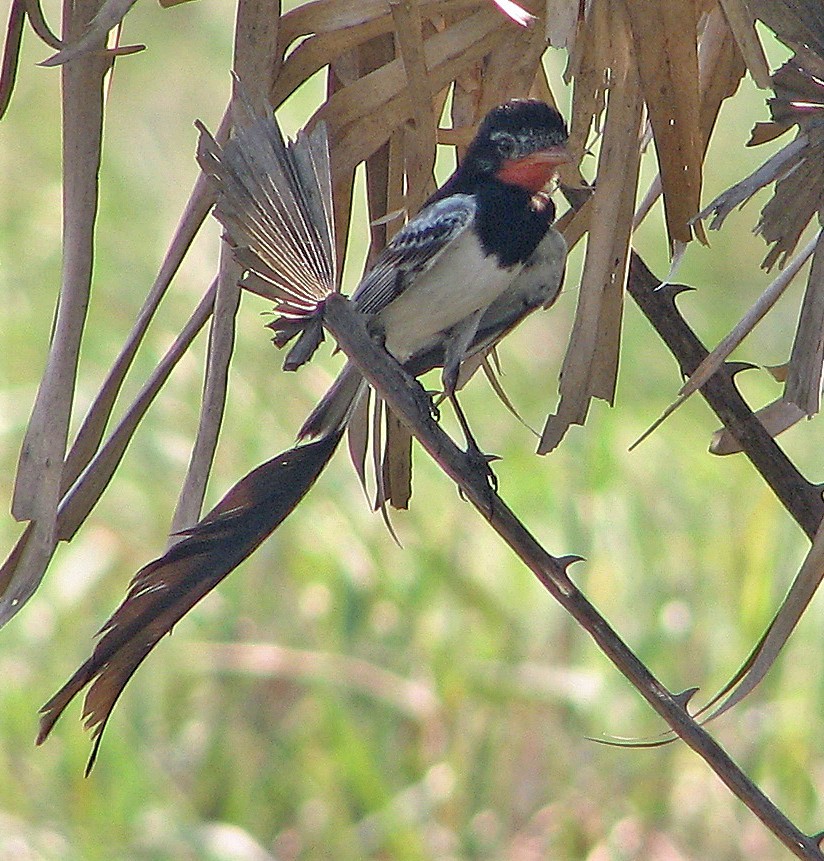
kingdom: Animalia
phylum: Chordata
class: Aves
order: Passeriformes
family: Tyrannidae
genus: Alectrurus
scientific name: Alectrurus risora
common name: Strange-tailed tyrant
